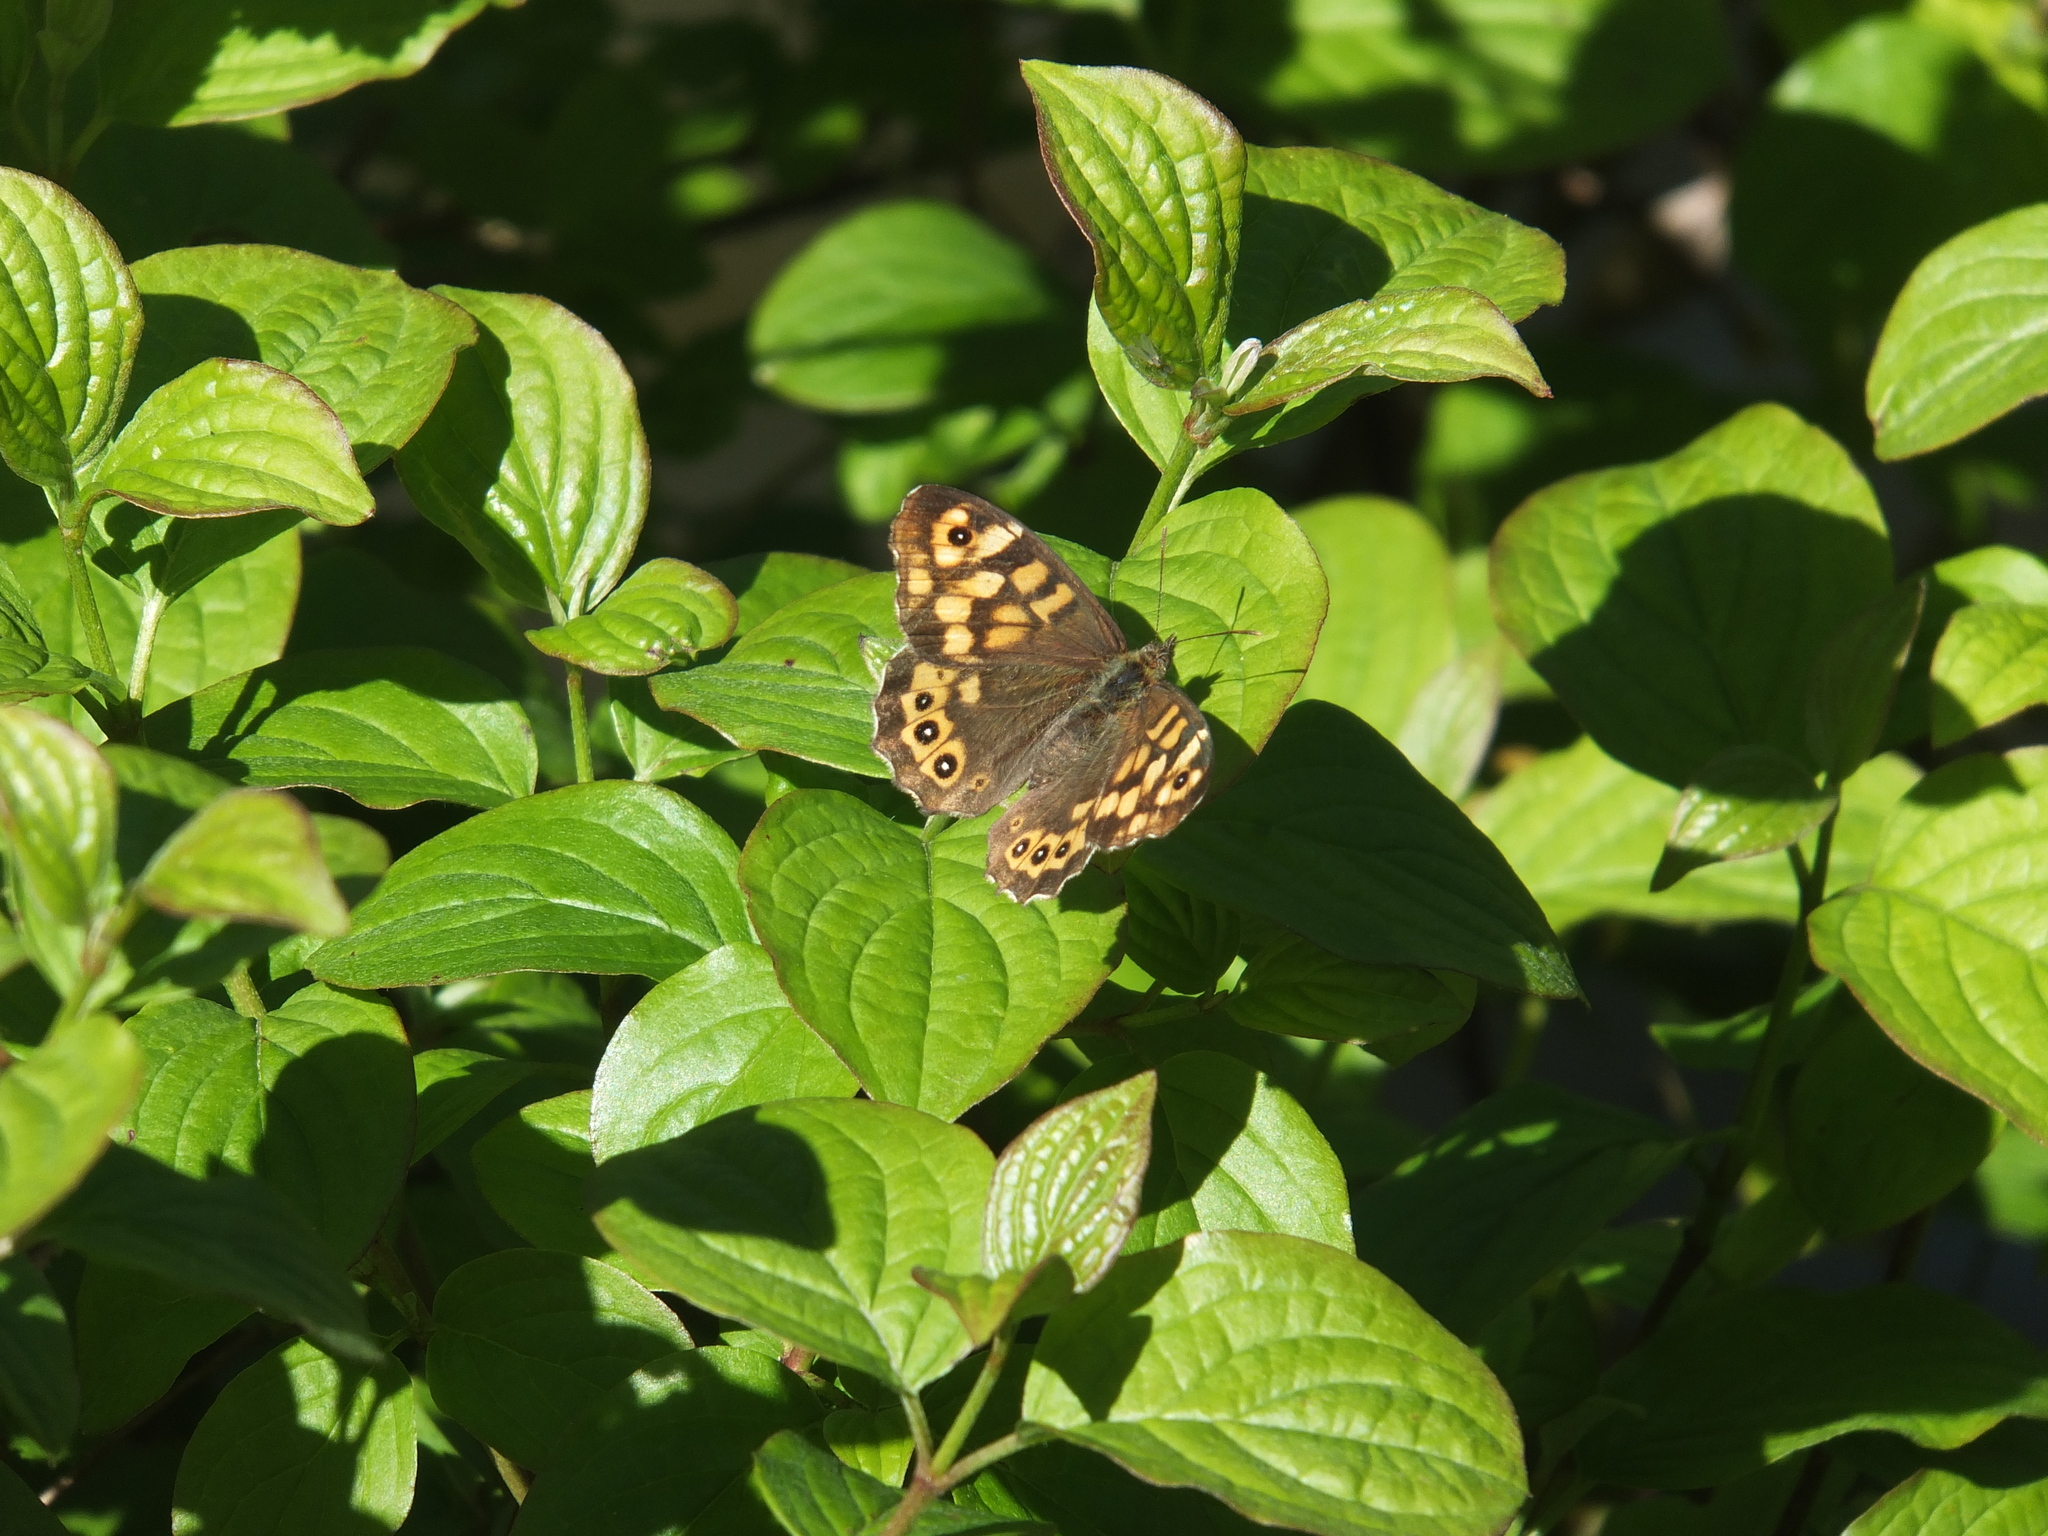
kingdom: Animalia
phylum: Arthropoda
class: Insecta
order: Lepidoptera
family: Nymphalidae
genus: Pararge
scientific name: Pararge aegeria
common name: Speckled wood
